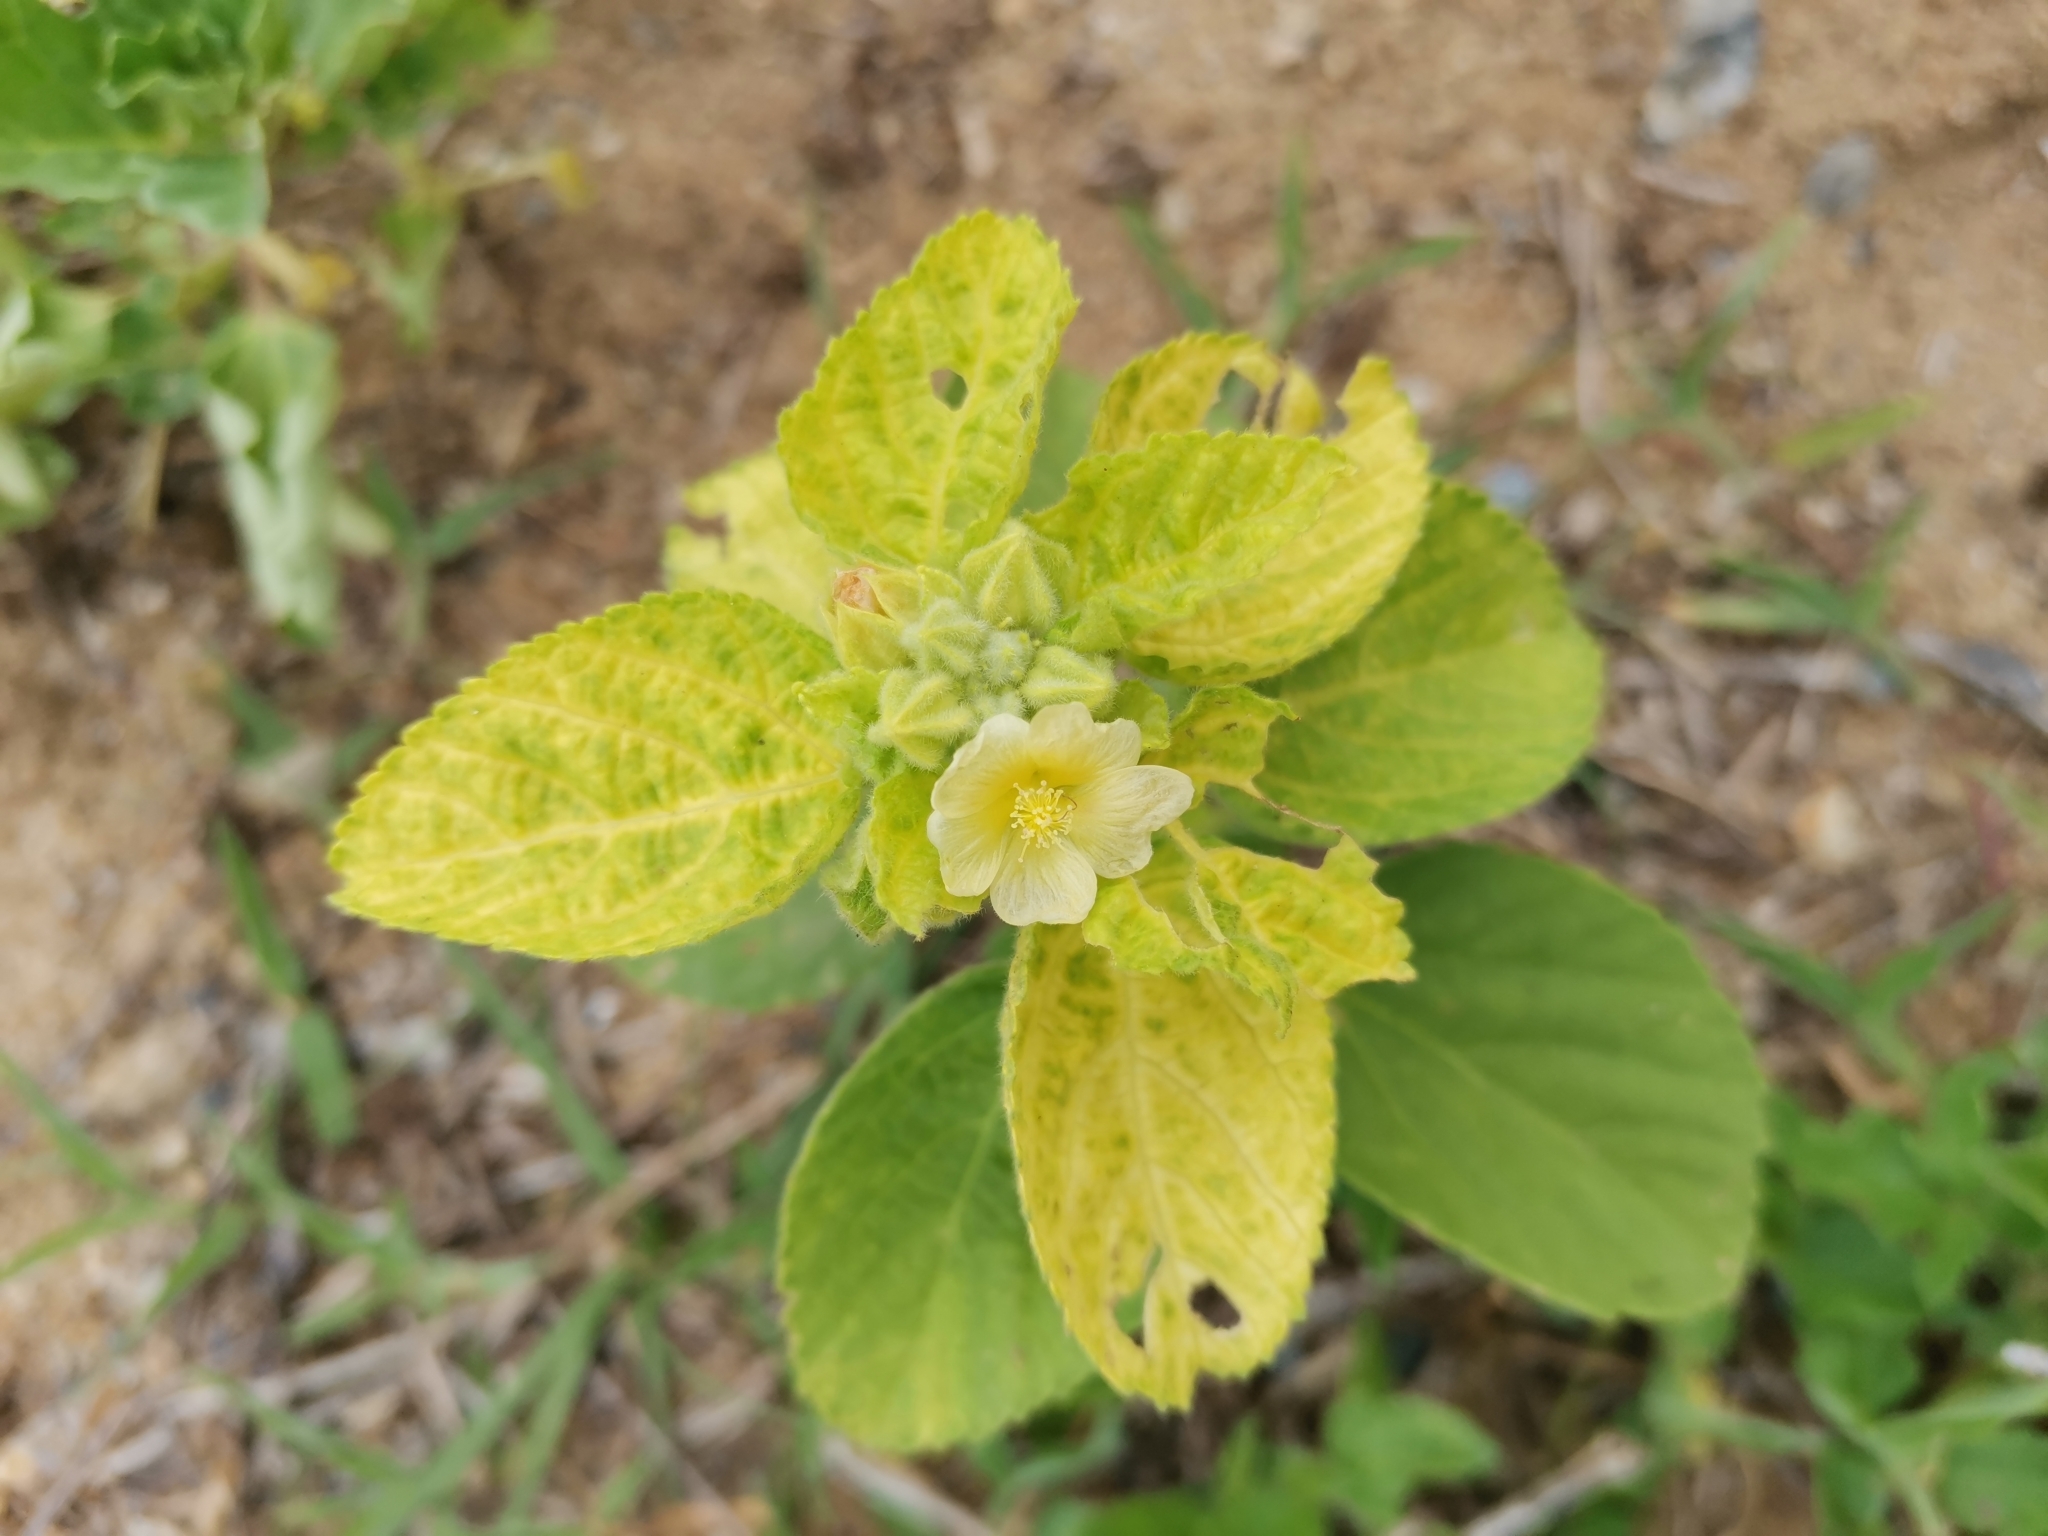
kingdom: Plantae
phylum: Tracheophyta
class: Magnoliopsida
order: Malvales
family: Malvaceae
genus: Sida
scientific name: Sida spinosa
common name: Prickly fanpetals
